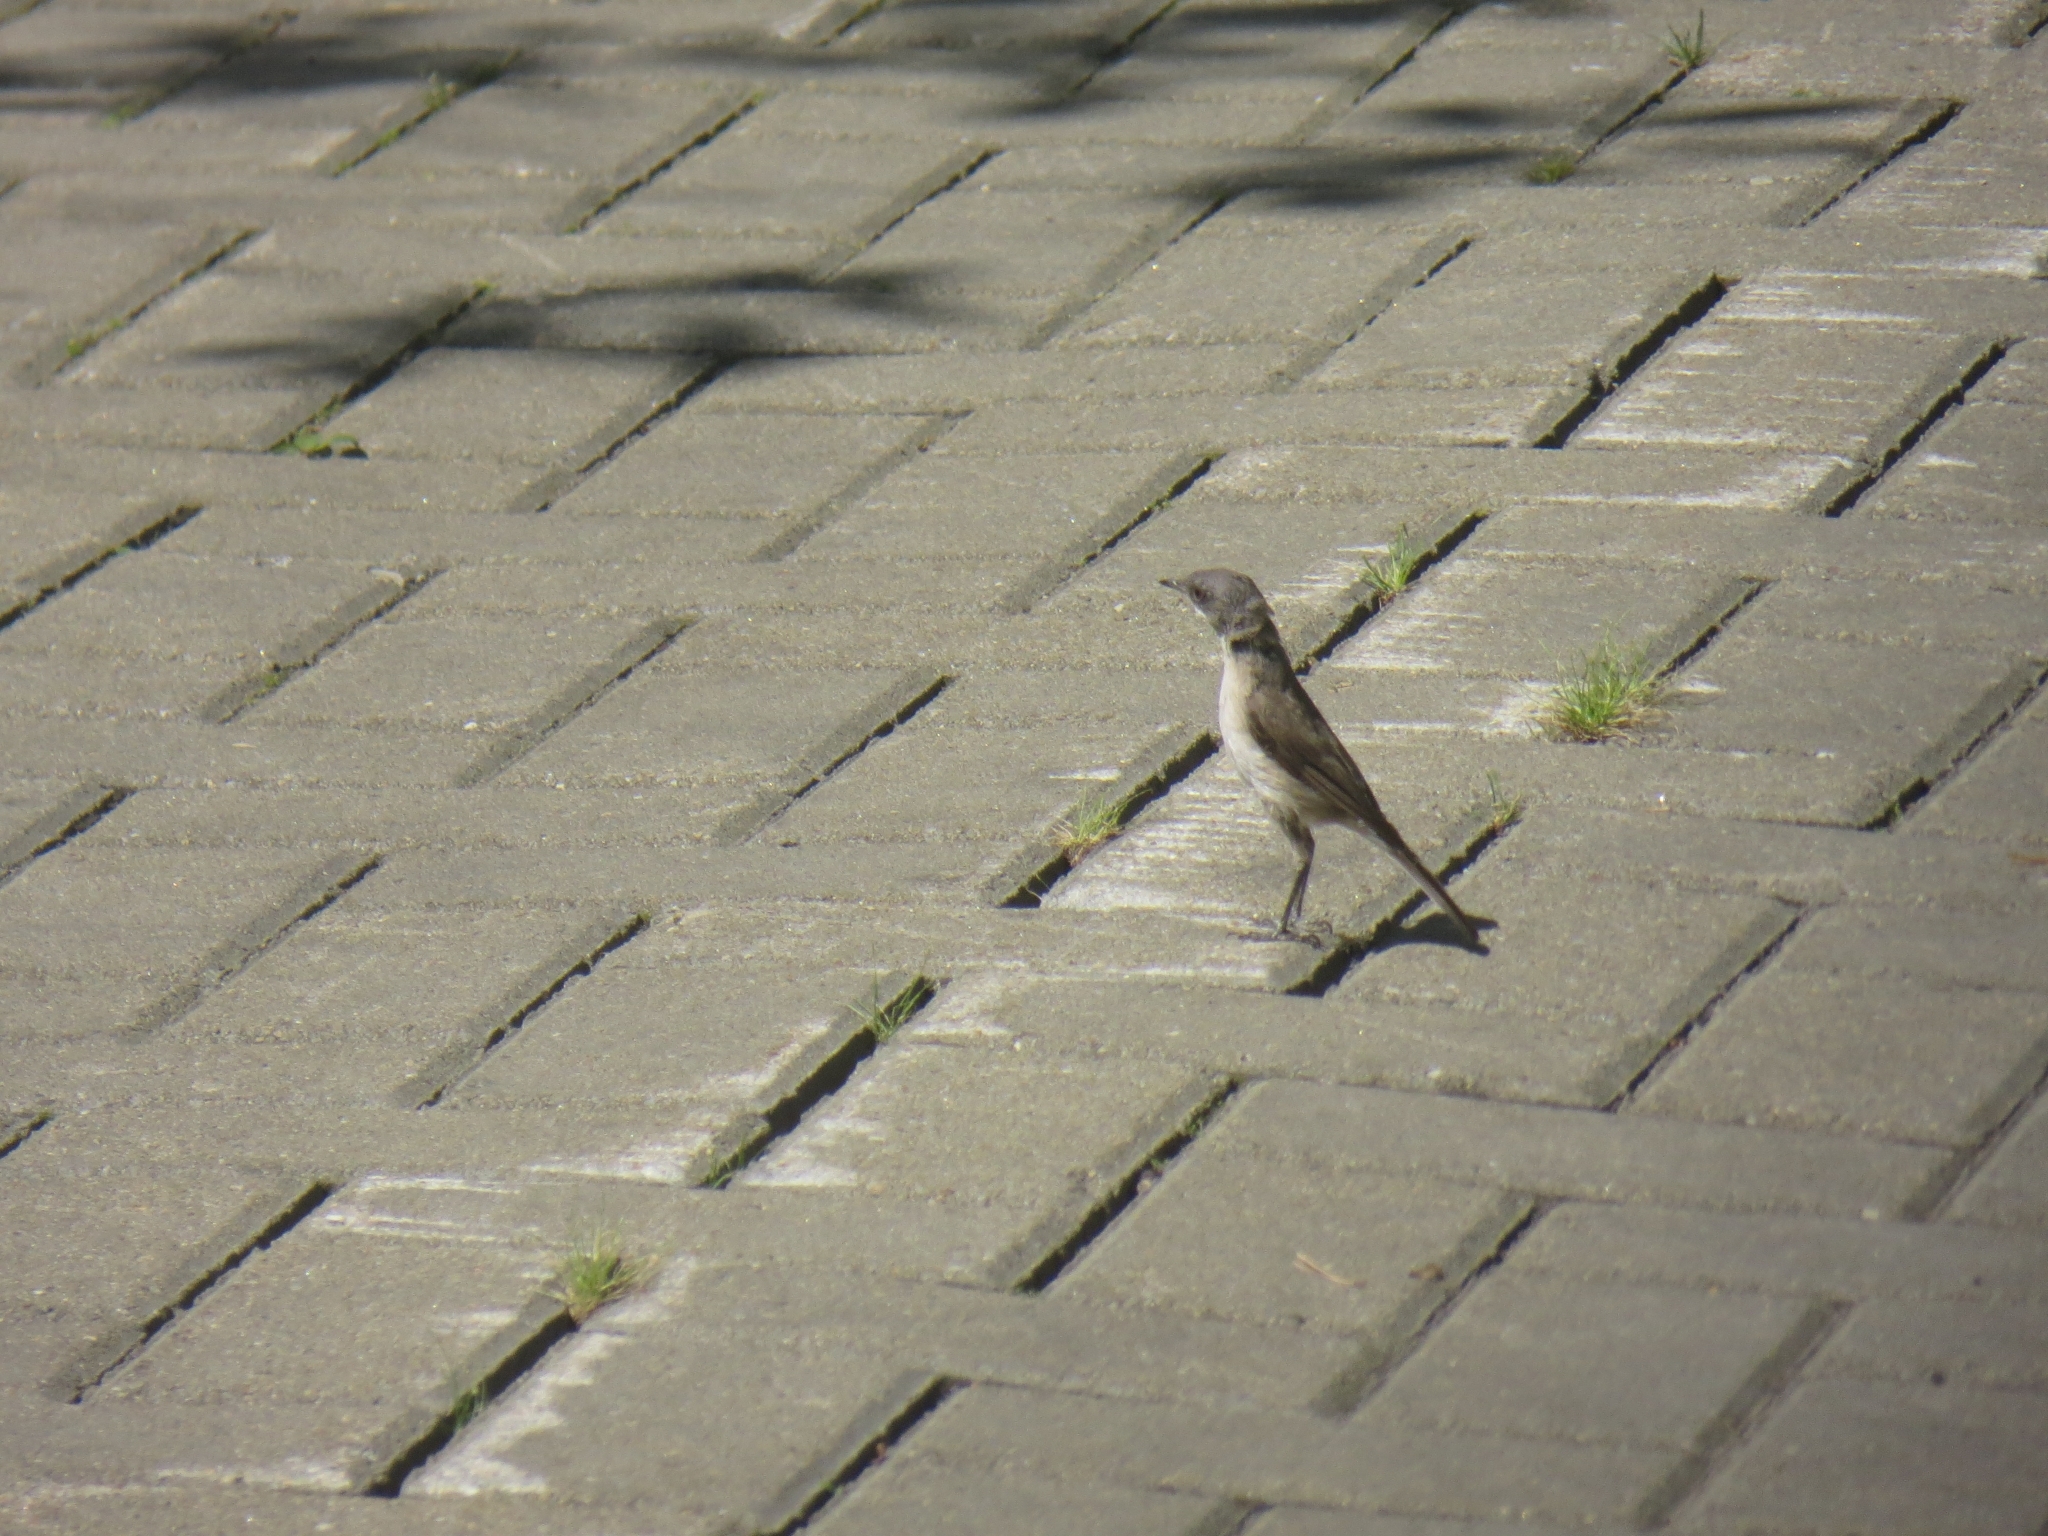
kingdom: Animalia
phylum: Chordata
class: Aves
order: Passeriformes
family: Sylviidae
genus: Sylvia
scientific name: Sylvia curruca
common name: Lesser whitethroat
